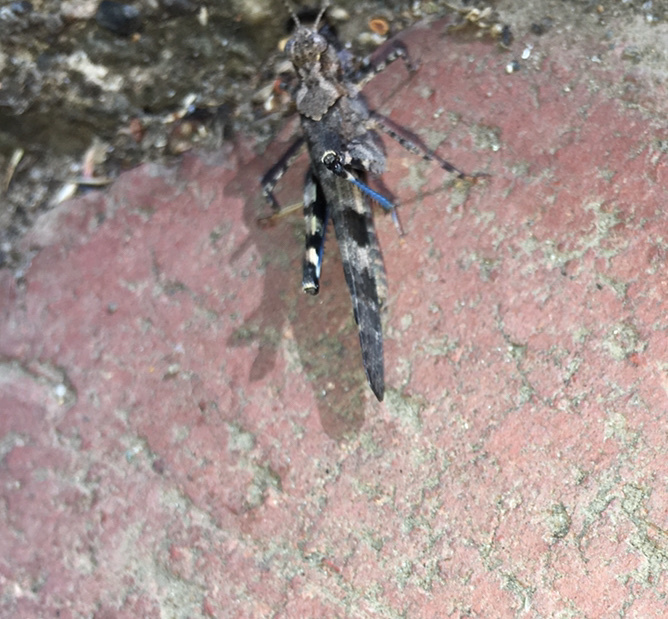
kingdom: Animalia
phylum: Arthropoda
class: Insecta
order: Orthoptera
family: Acrididae
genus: Trimerotropis
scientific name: Trimerotropis fontana
